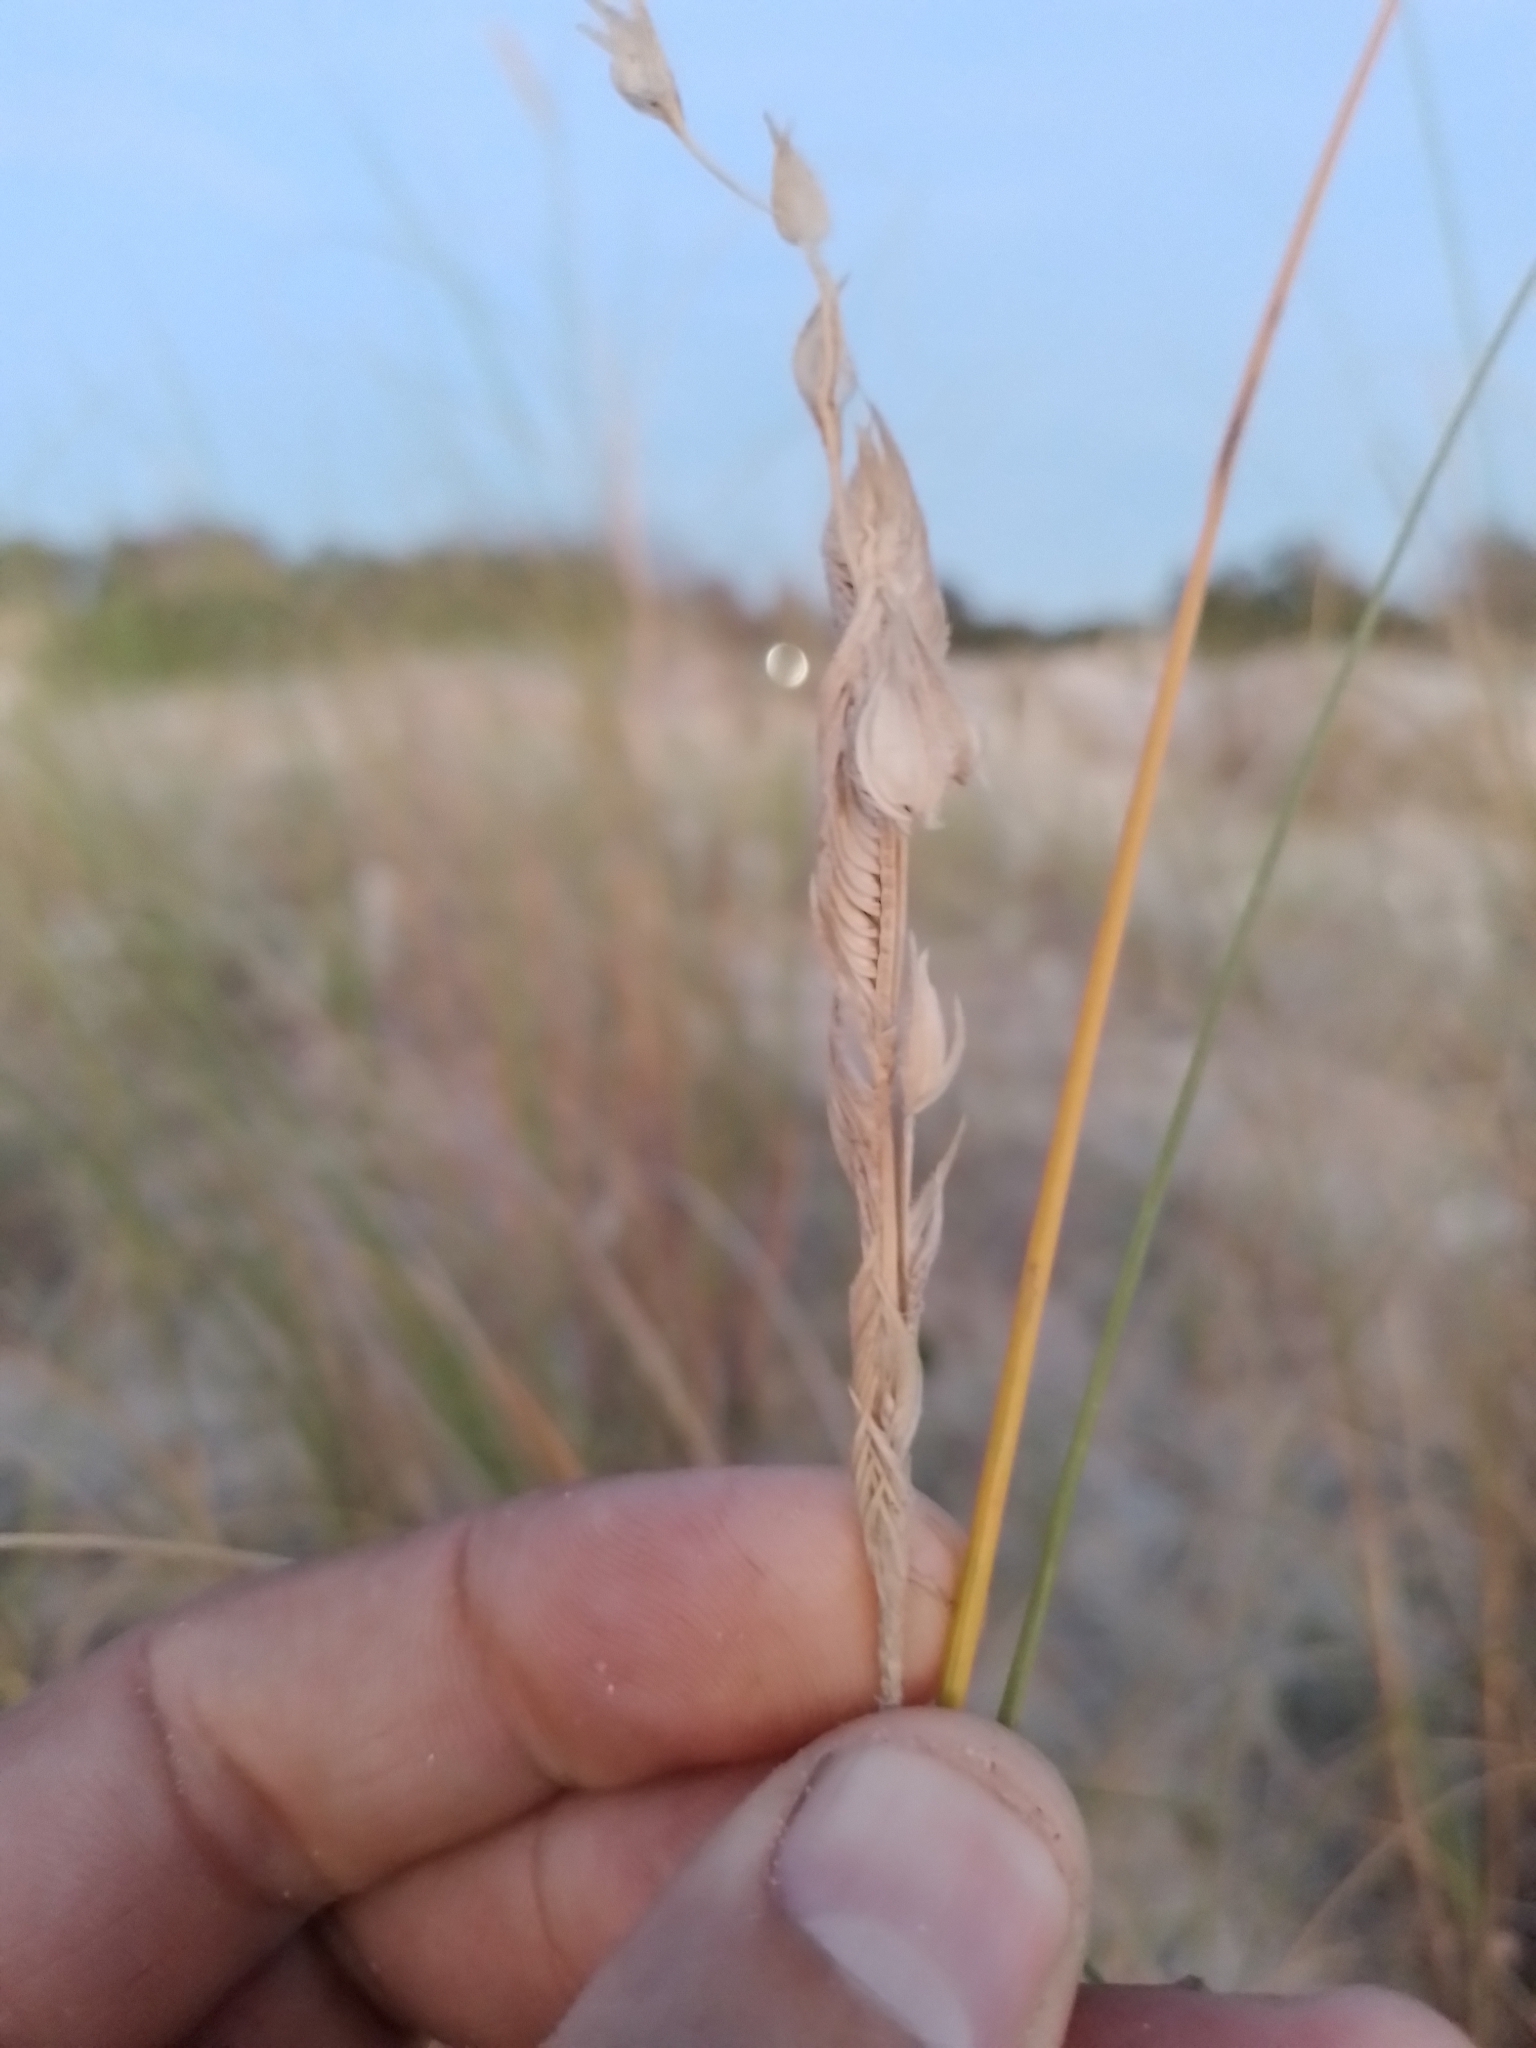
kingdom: Plantae
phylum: Tracheophyta
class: Liliopsida
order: Poales
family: Poaceae
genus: Sporobolus
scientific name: Sporobolus coarctatus
